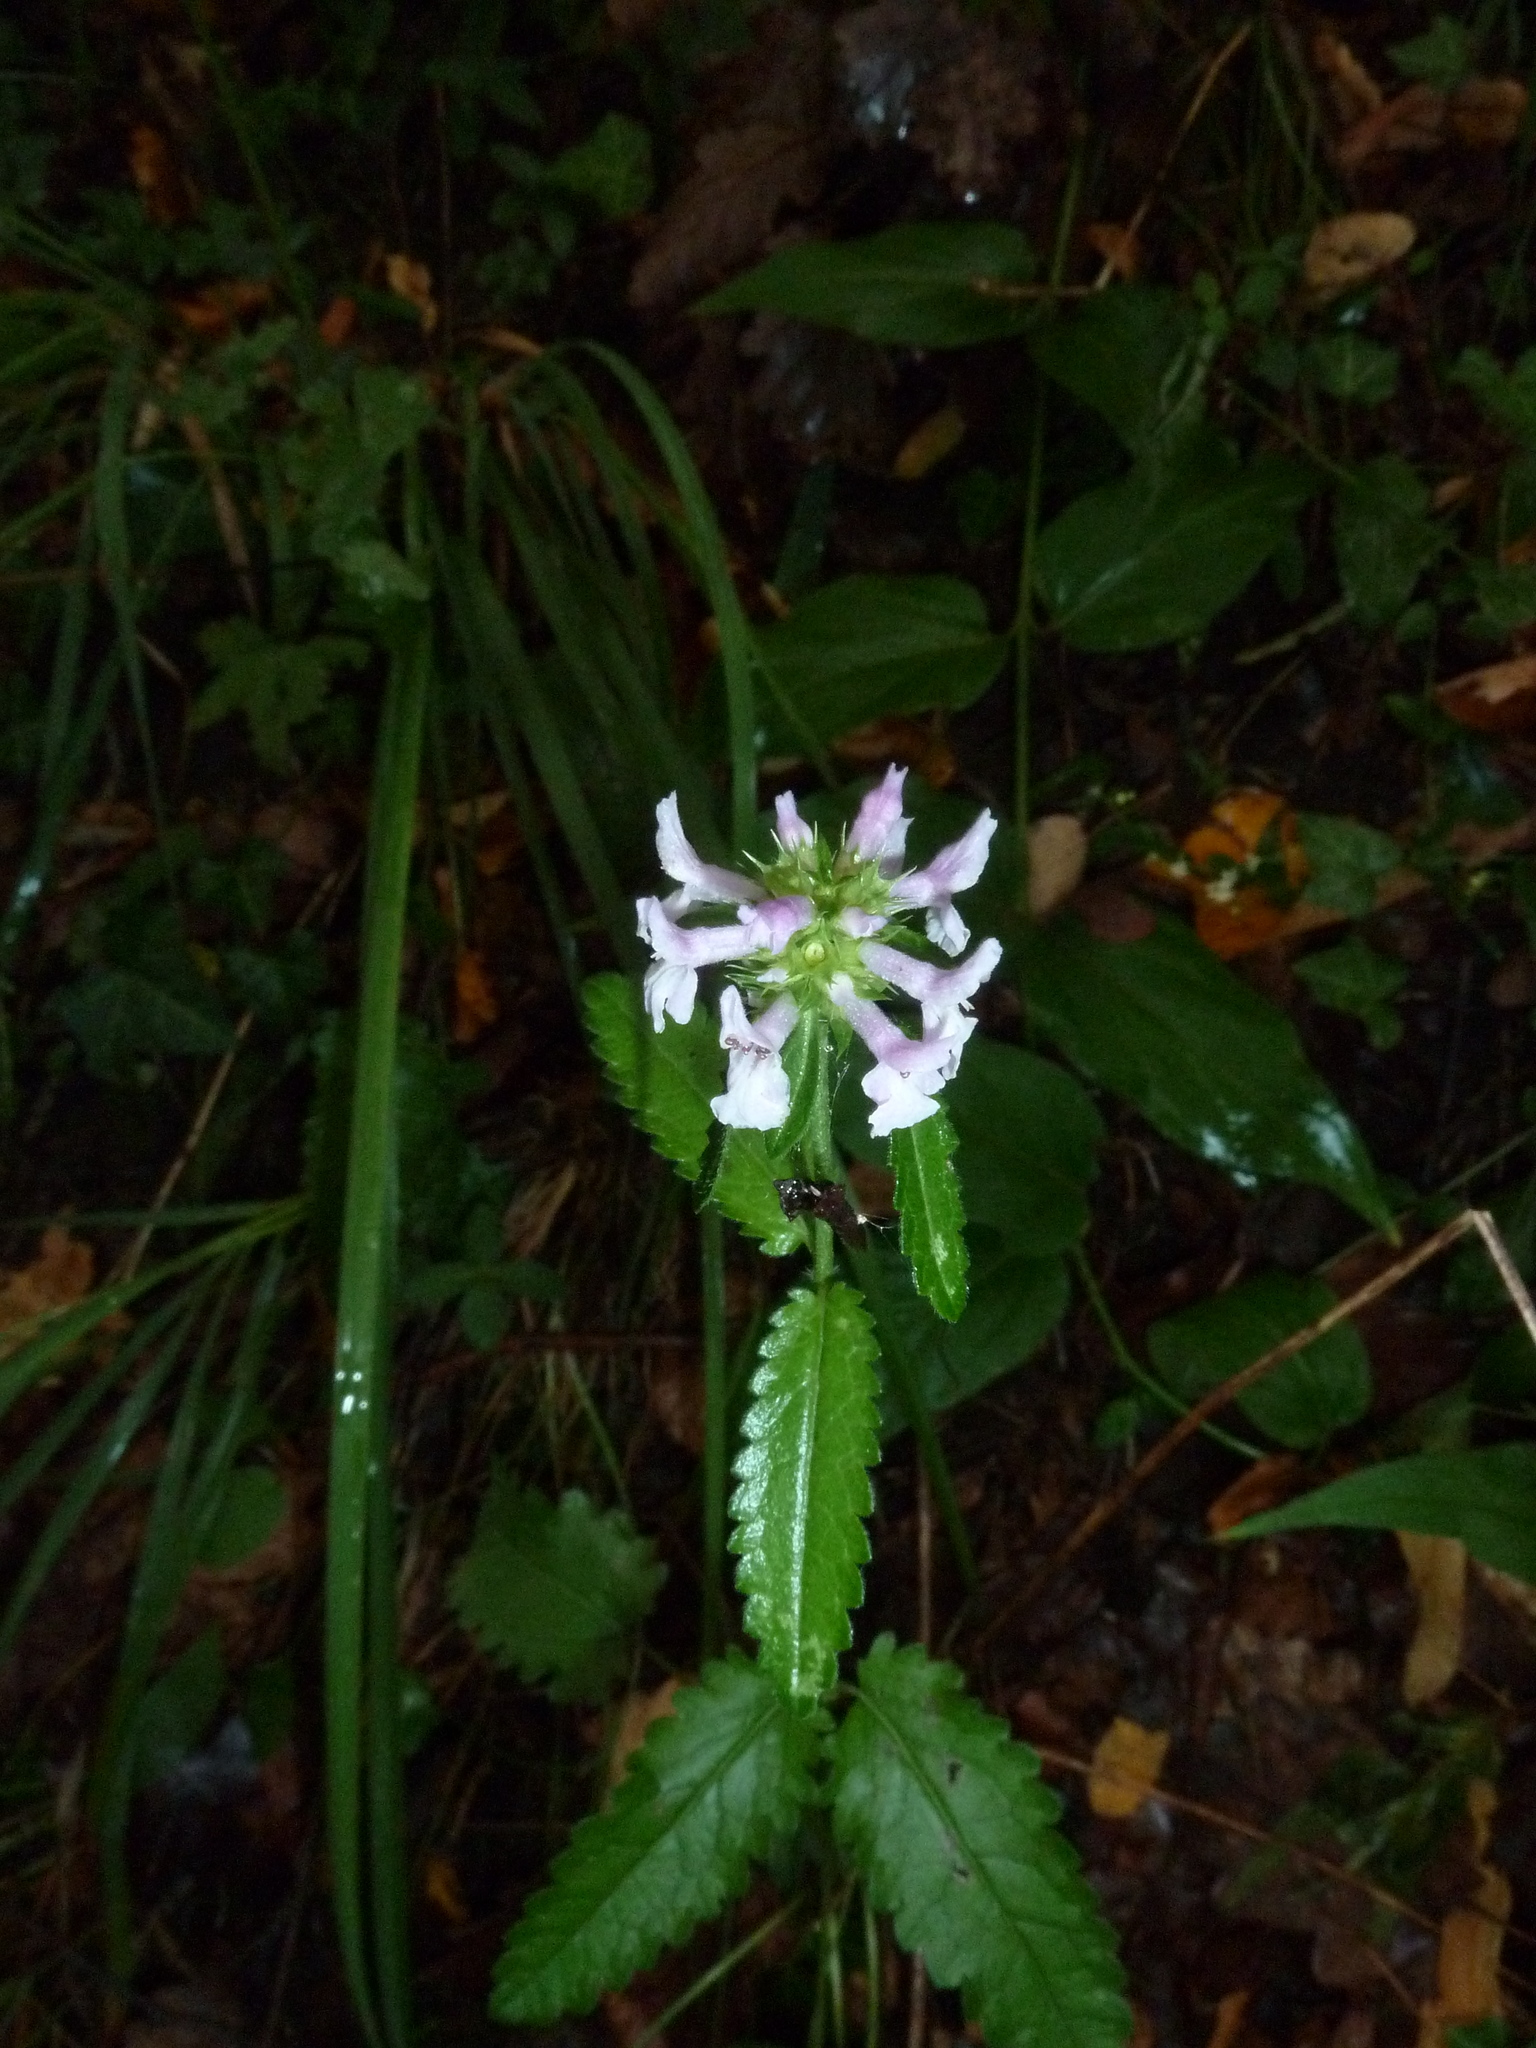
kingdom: Plantae
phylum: Tracheophyta
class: Magnoliopsida
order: Lamiales
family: Lamiaceae
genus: Betonica
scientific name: Betonica officinalis
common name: Bishop's-wort
